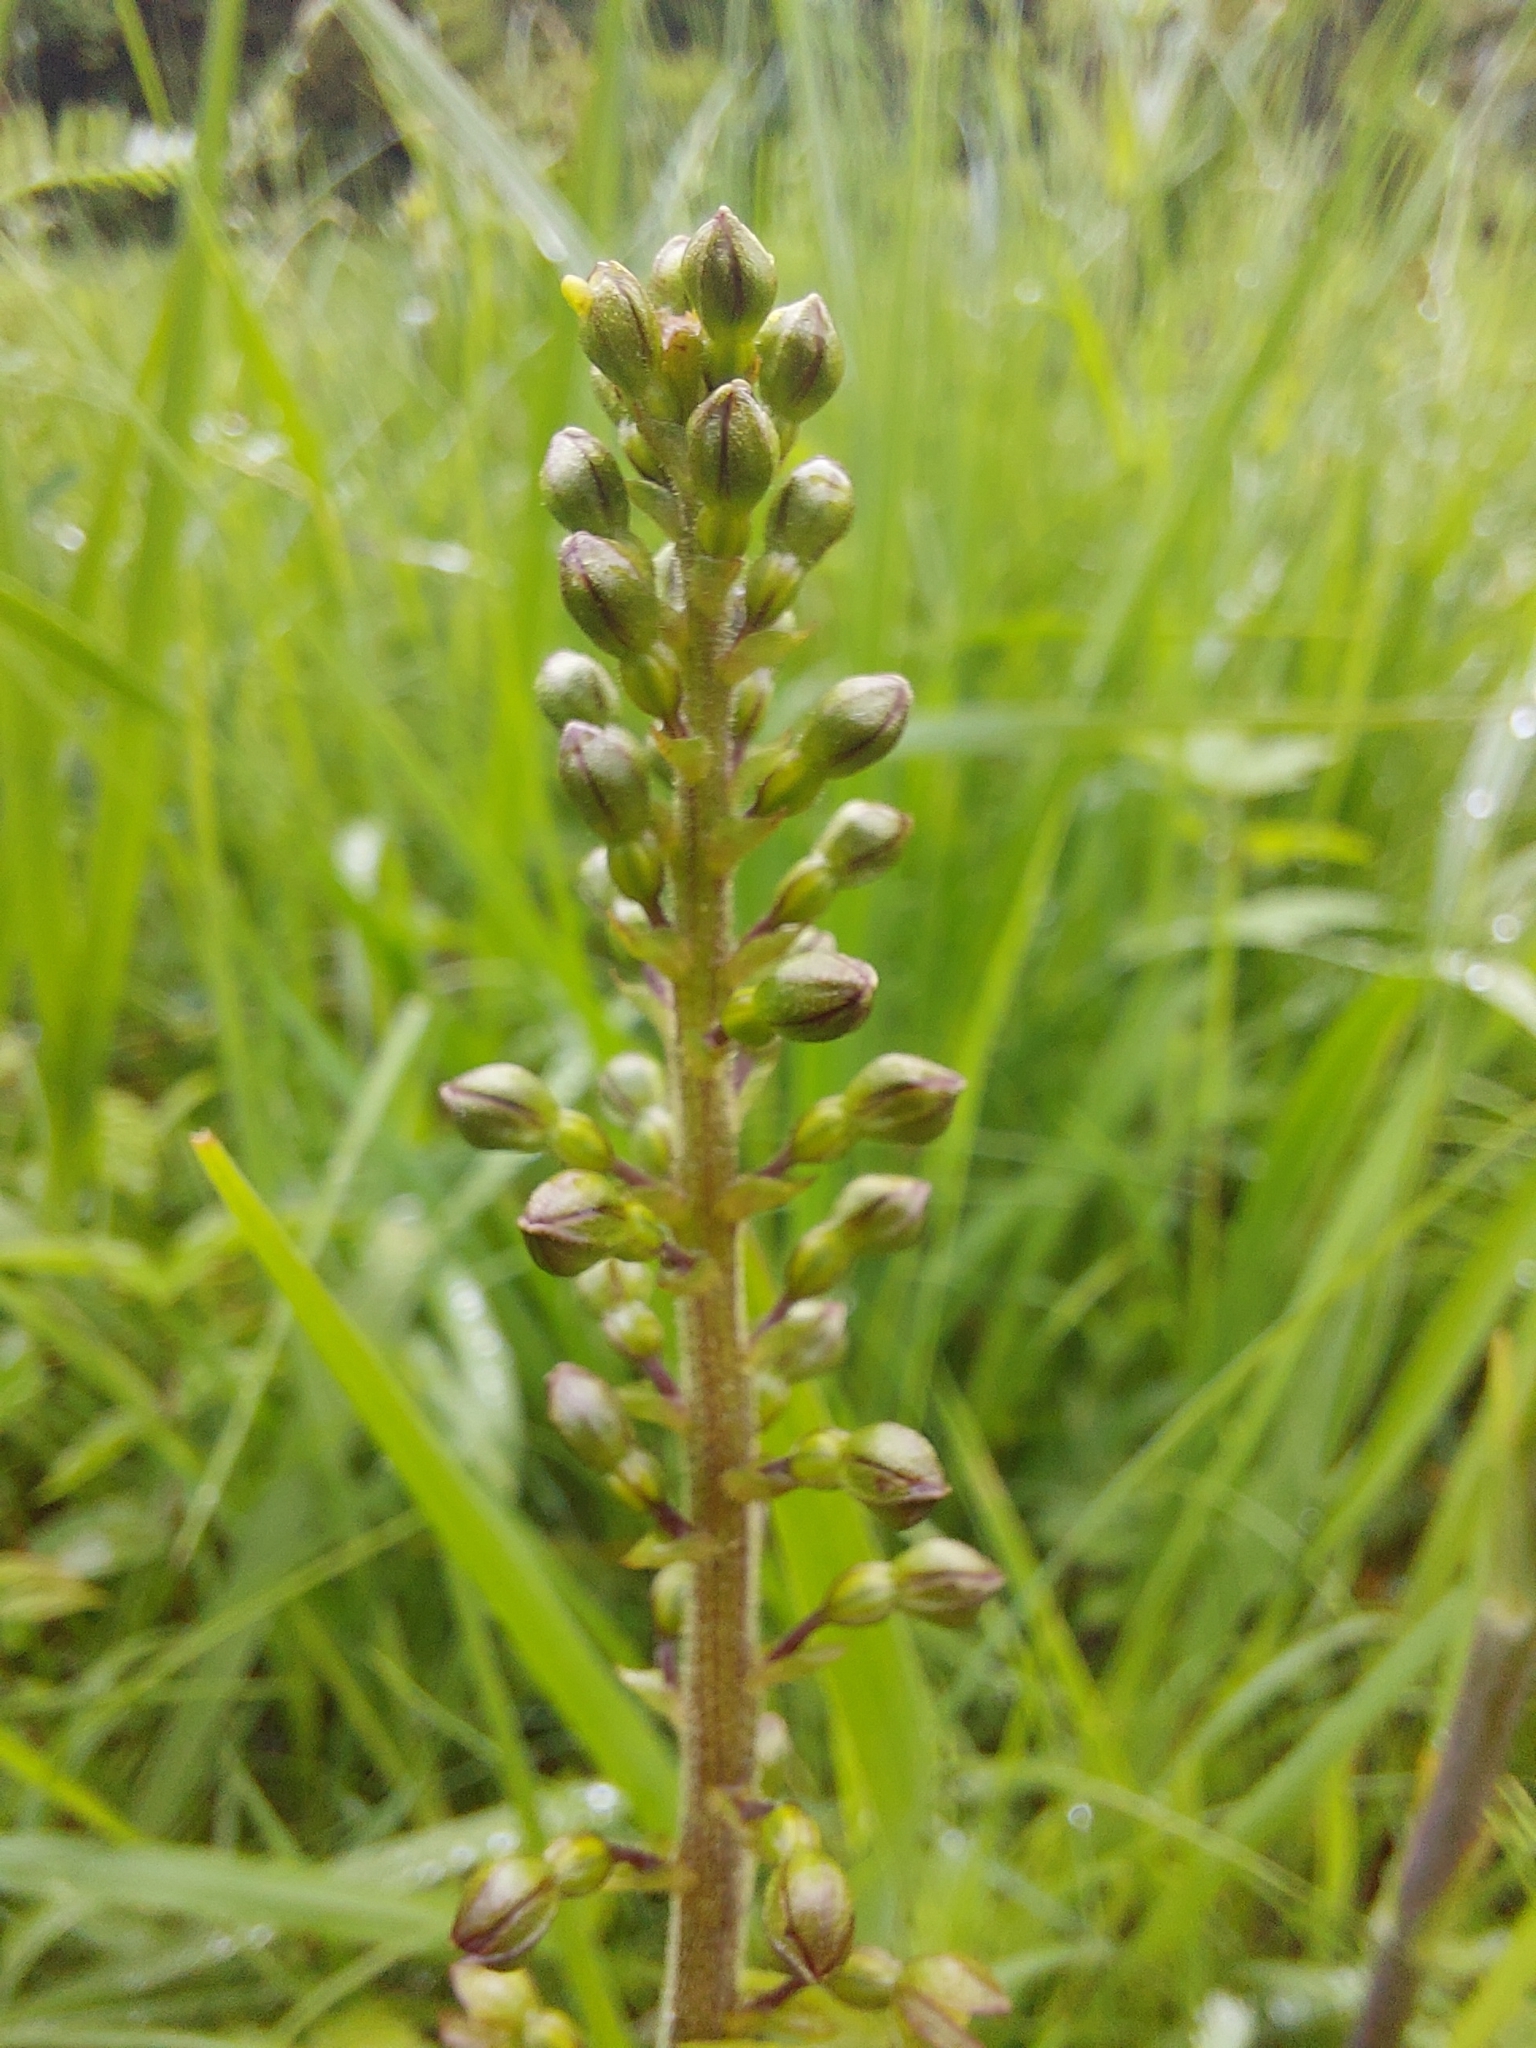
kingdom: Plantae
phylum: Tracheophyta
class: Liliopsida
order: Asparagales
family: Orchidaceae
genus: Neottia
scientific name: Neottia ovata
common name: Common twayblade
